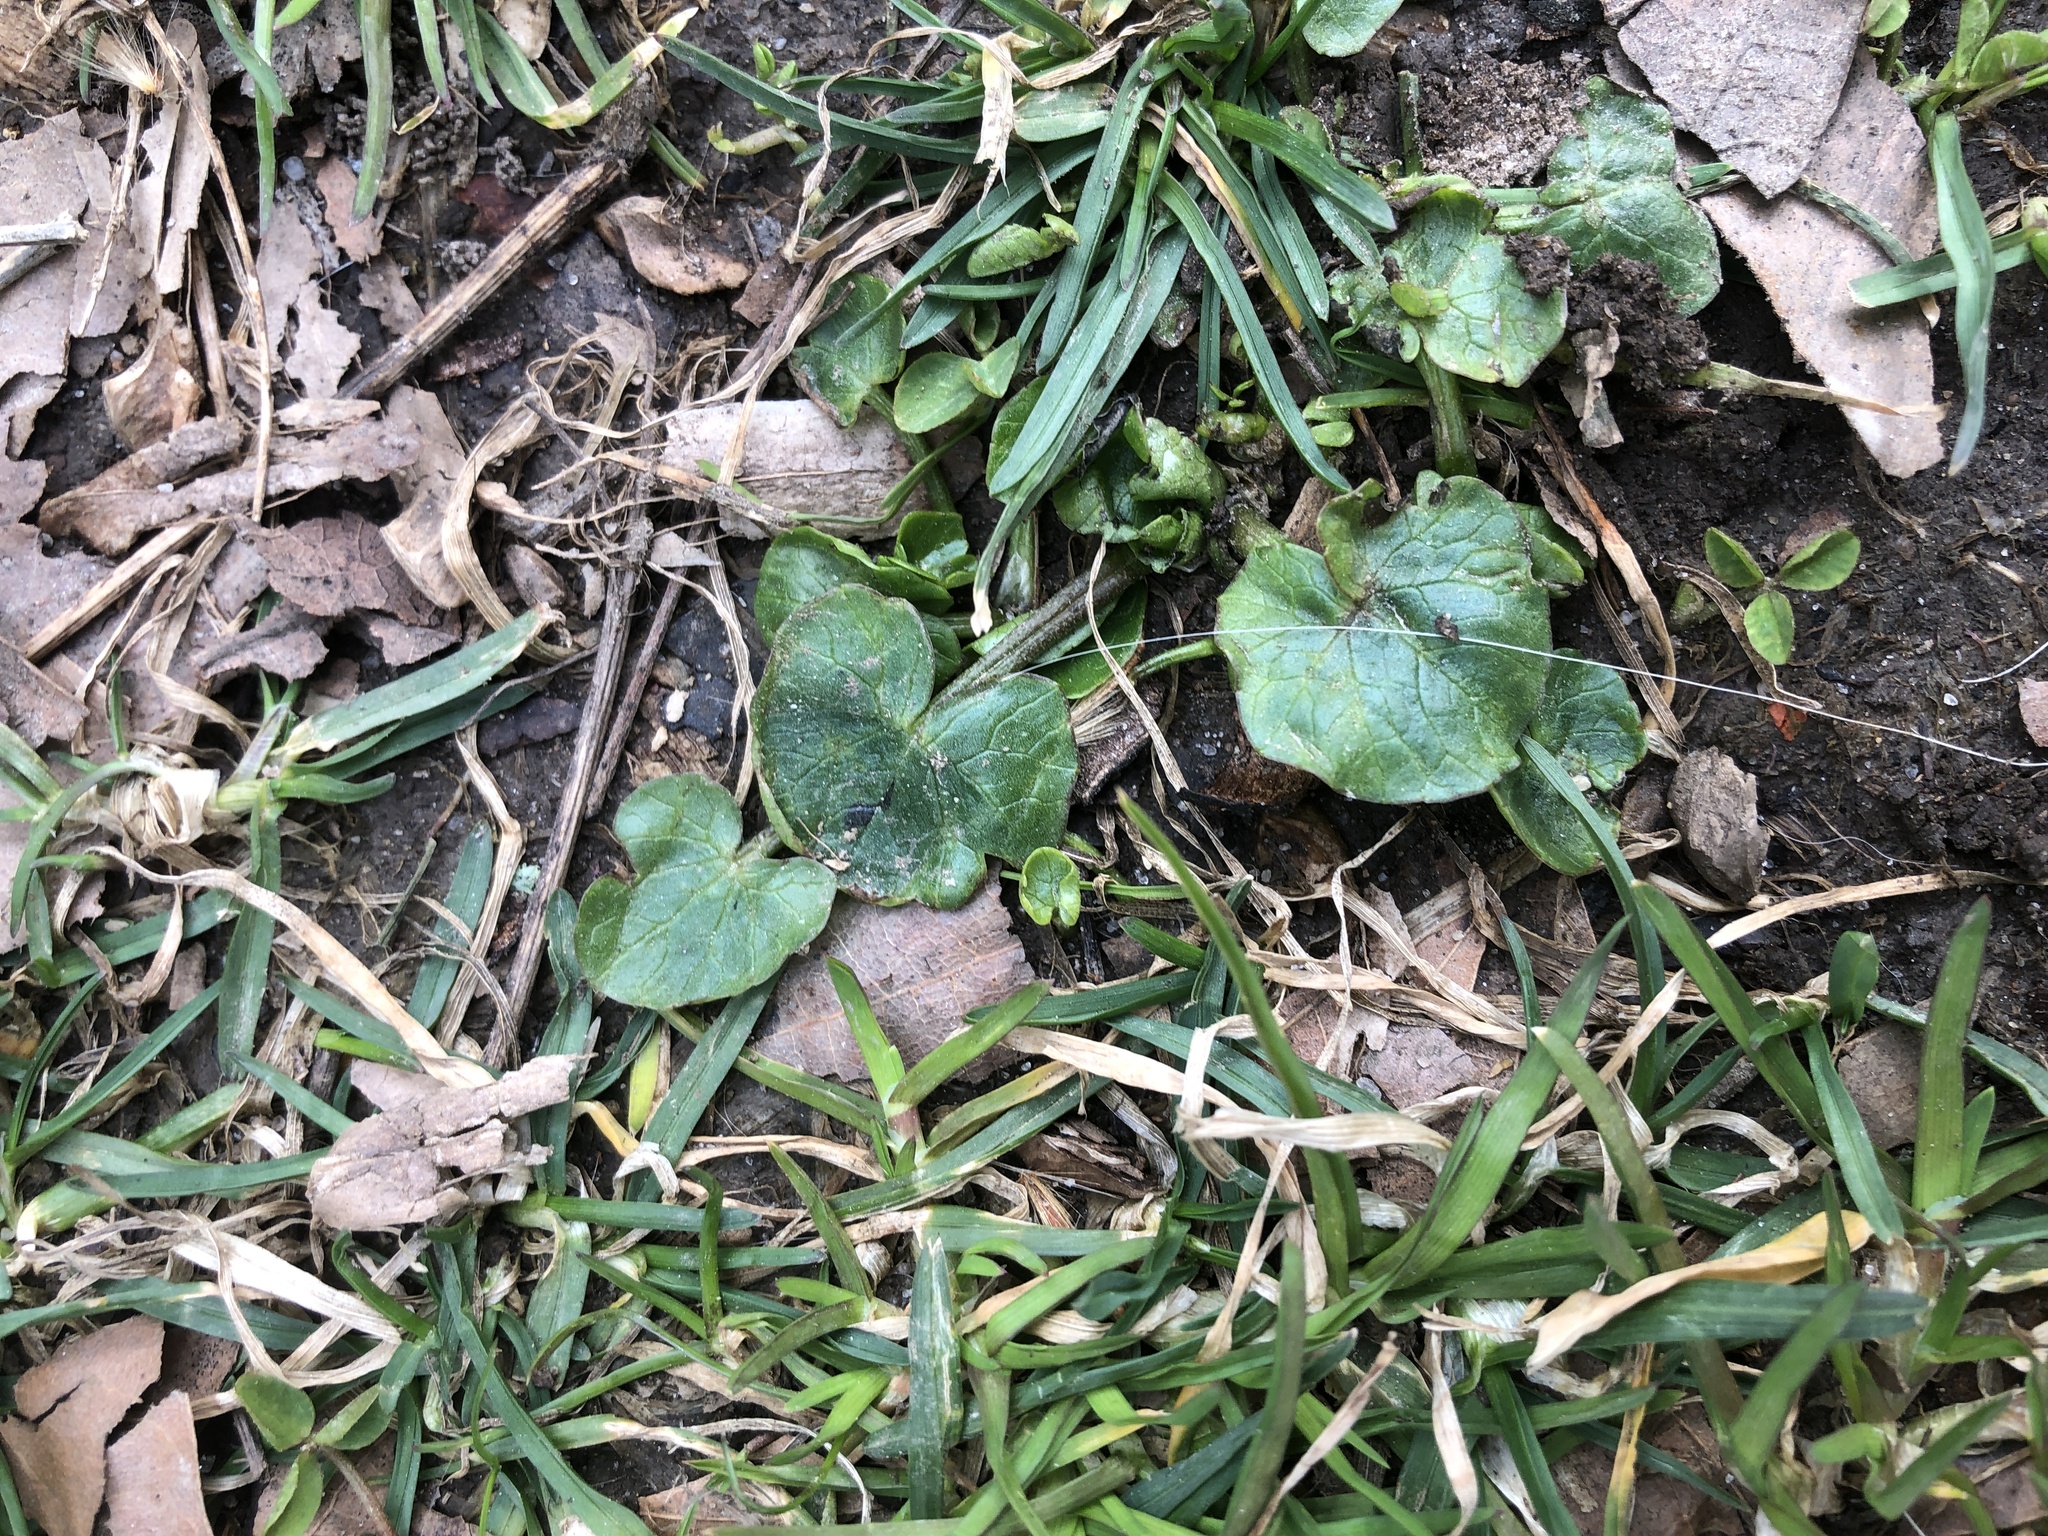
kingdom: Plantae
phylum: Tracheophyta
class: Magnoliopsida
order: Ranunculales
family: Ranunculaceae
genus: Ficaria
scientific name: Ficaria verna
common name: Lesser celandine
